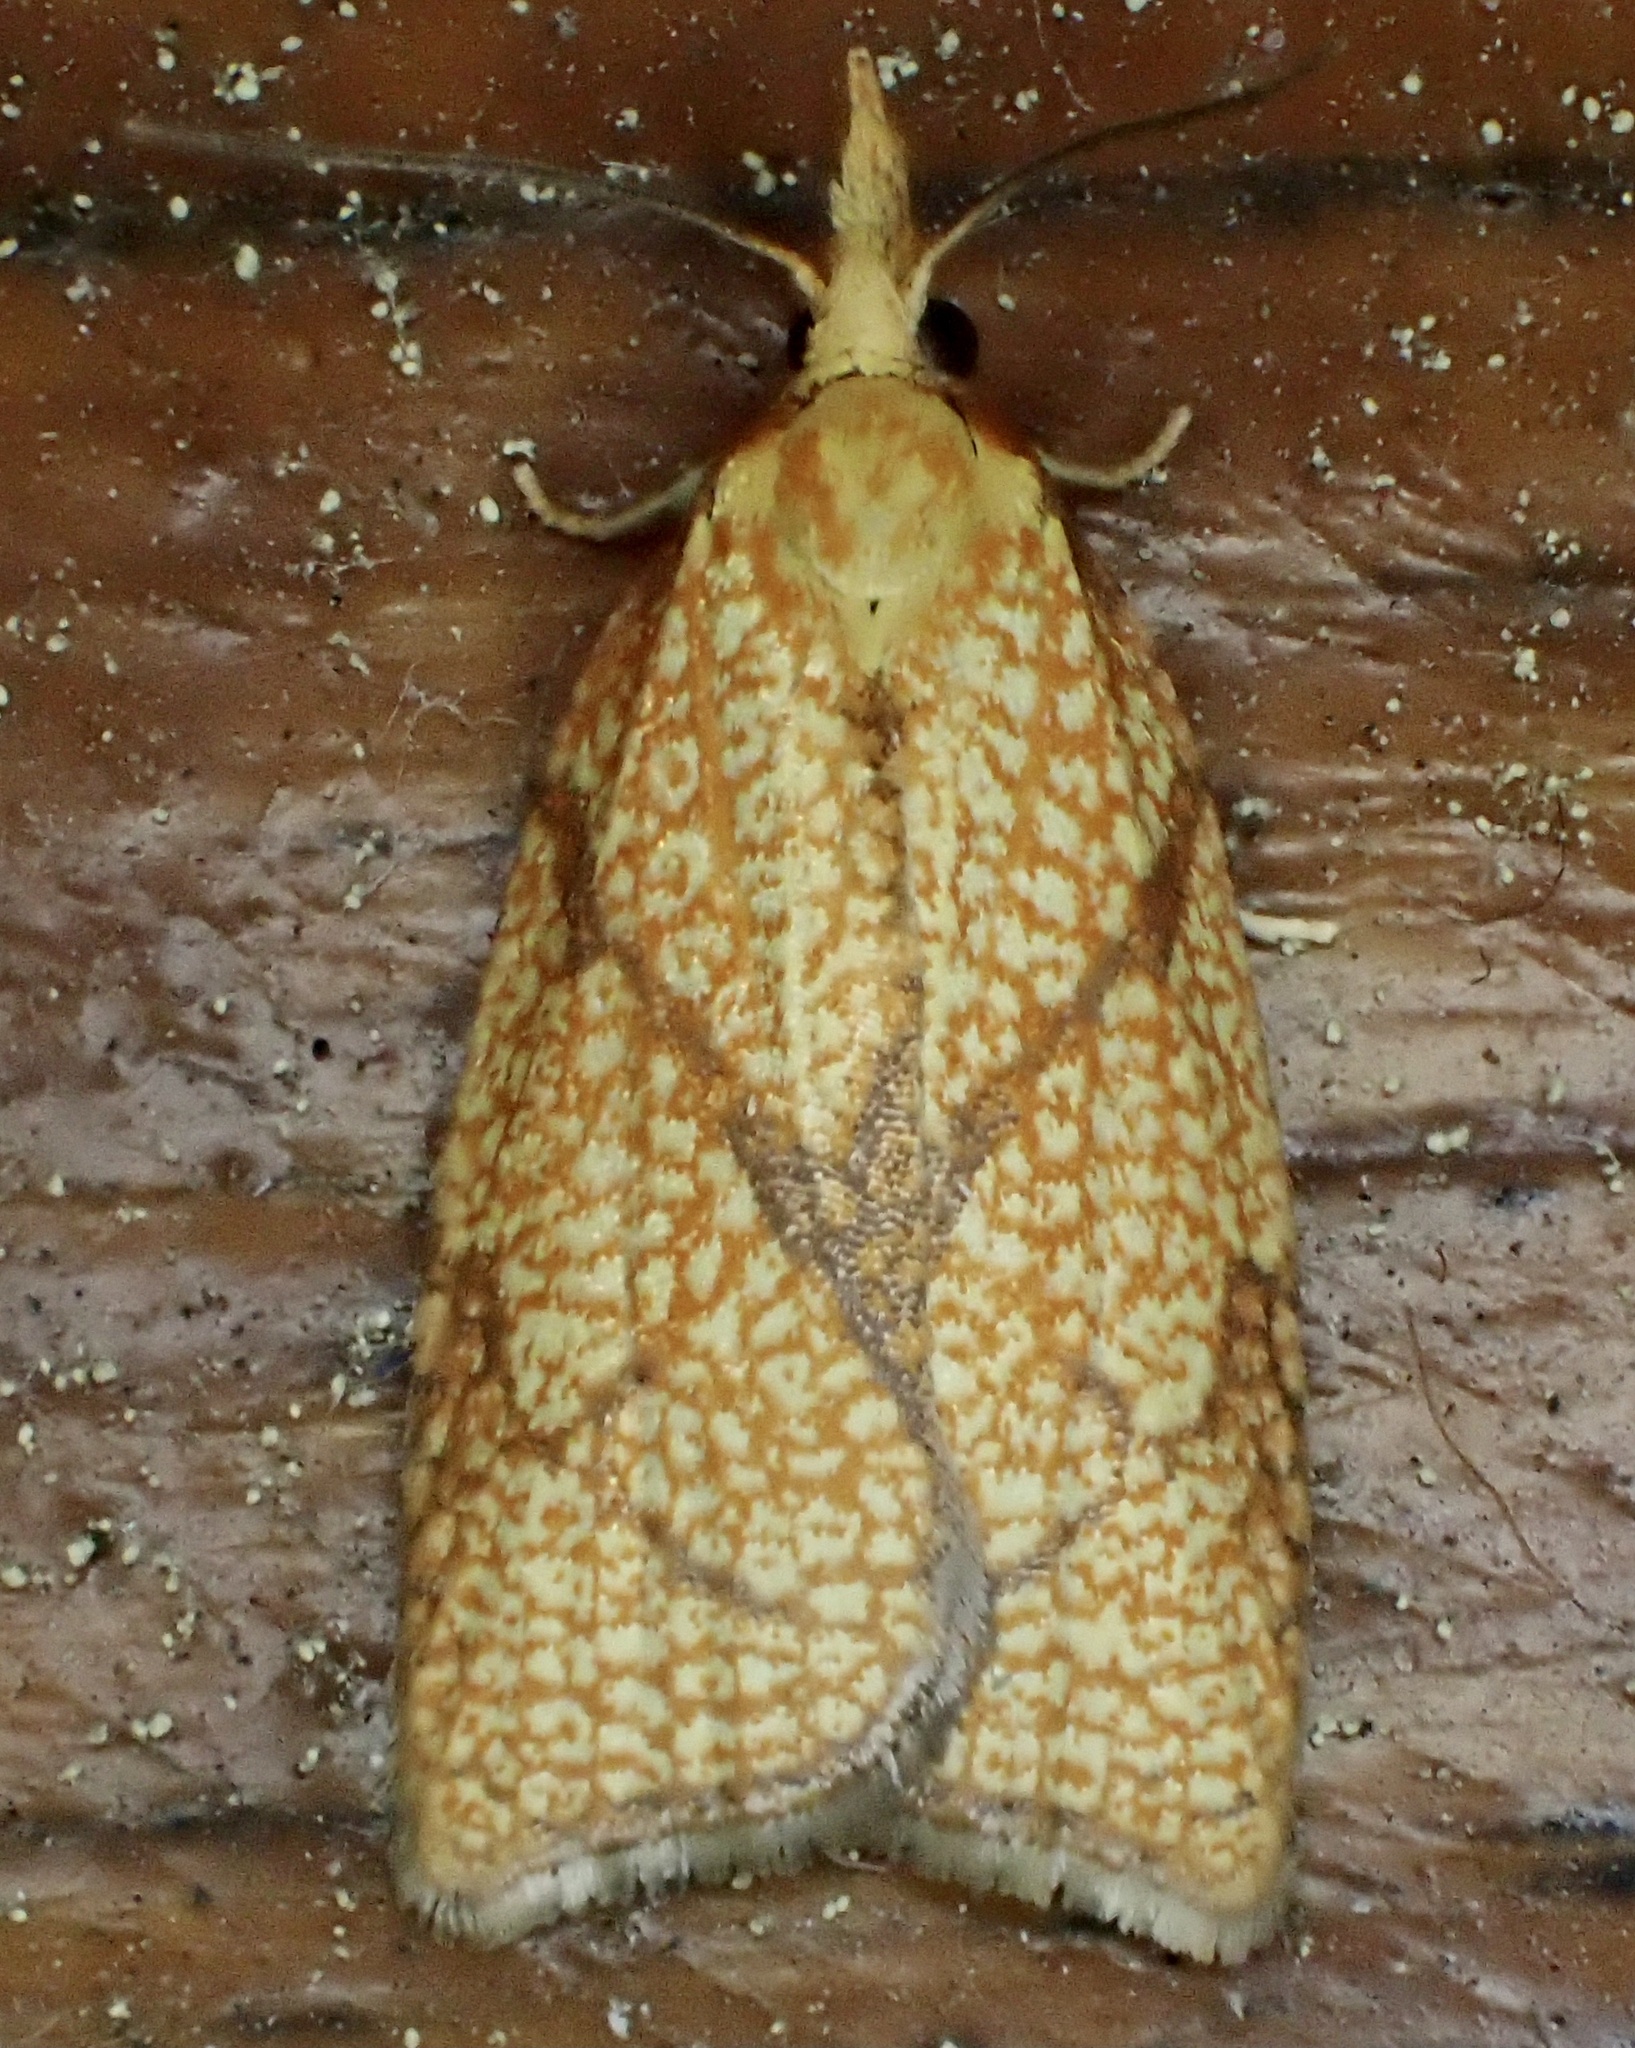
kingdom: Animalia
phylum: Arthropoda
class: Insecta
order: Lepidoptera
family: Tortricidae
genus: Cenopis
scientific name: Cenopis reticulatana
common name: Reticulated fruitworm moth
